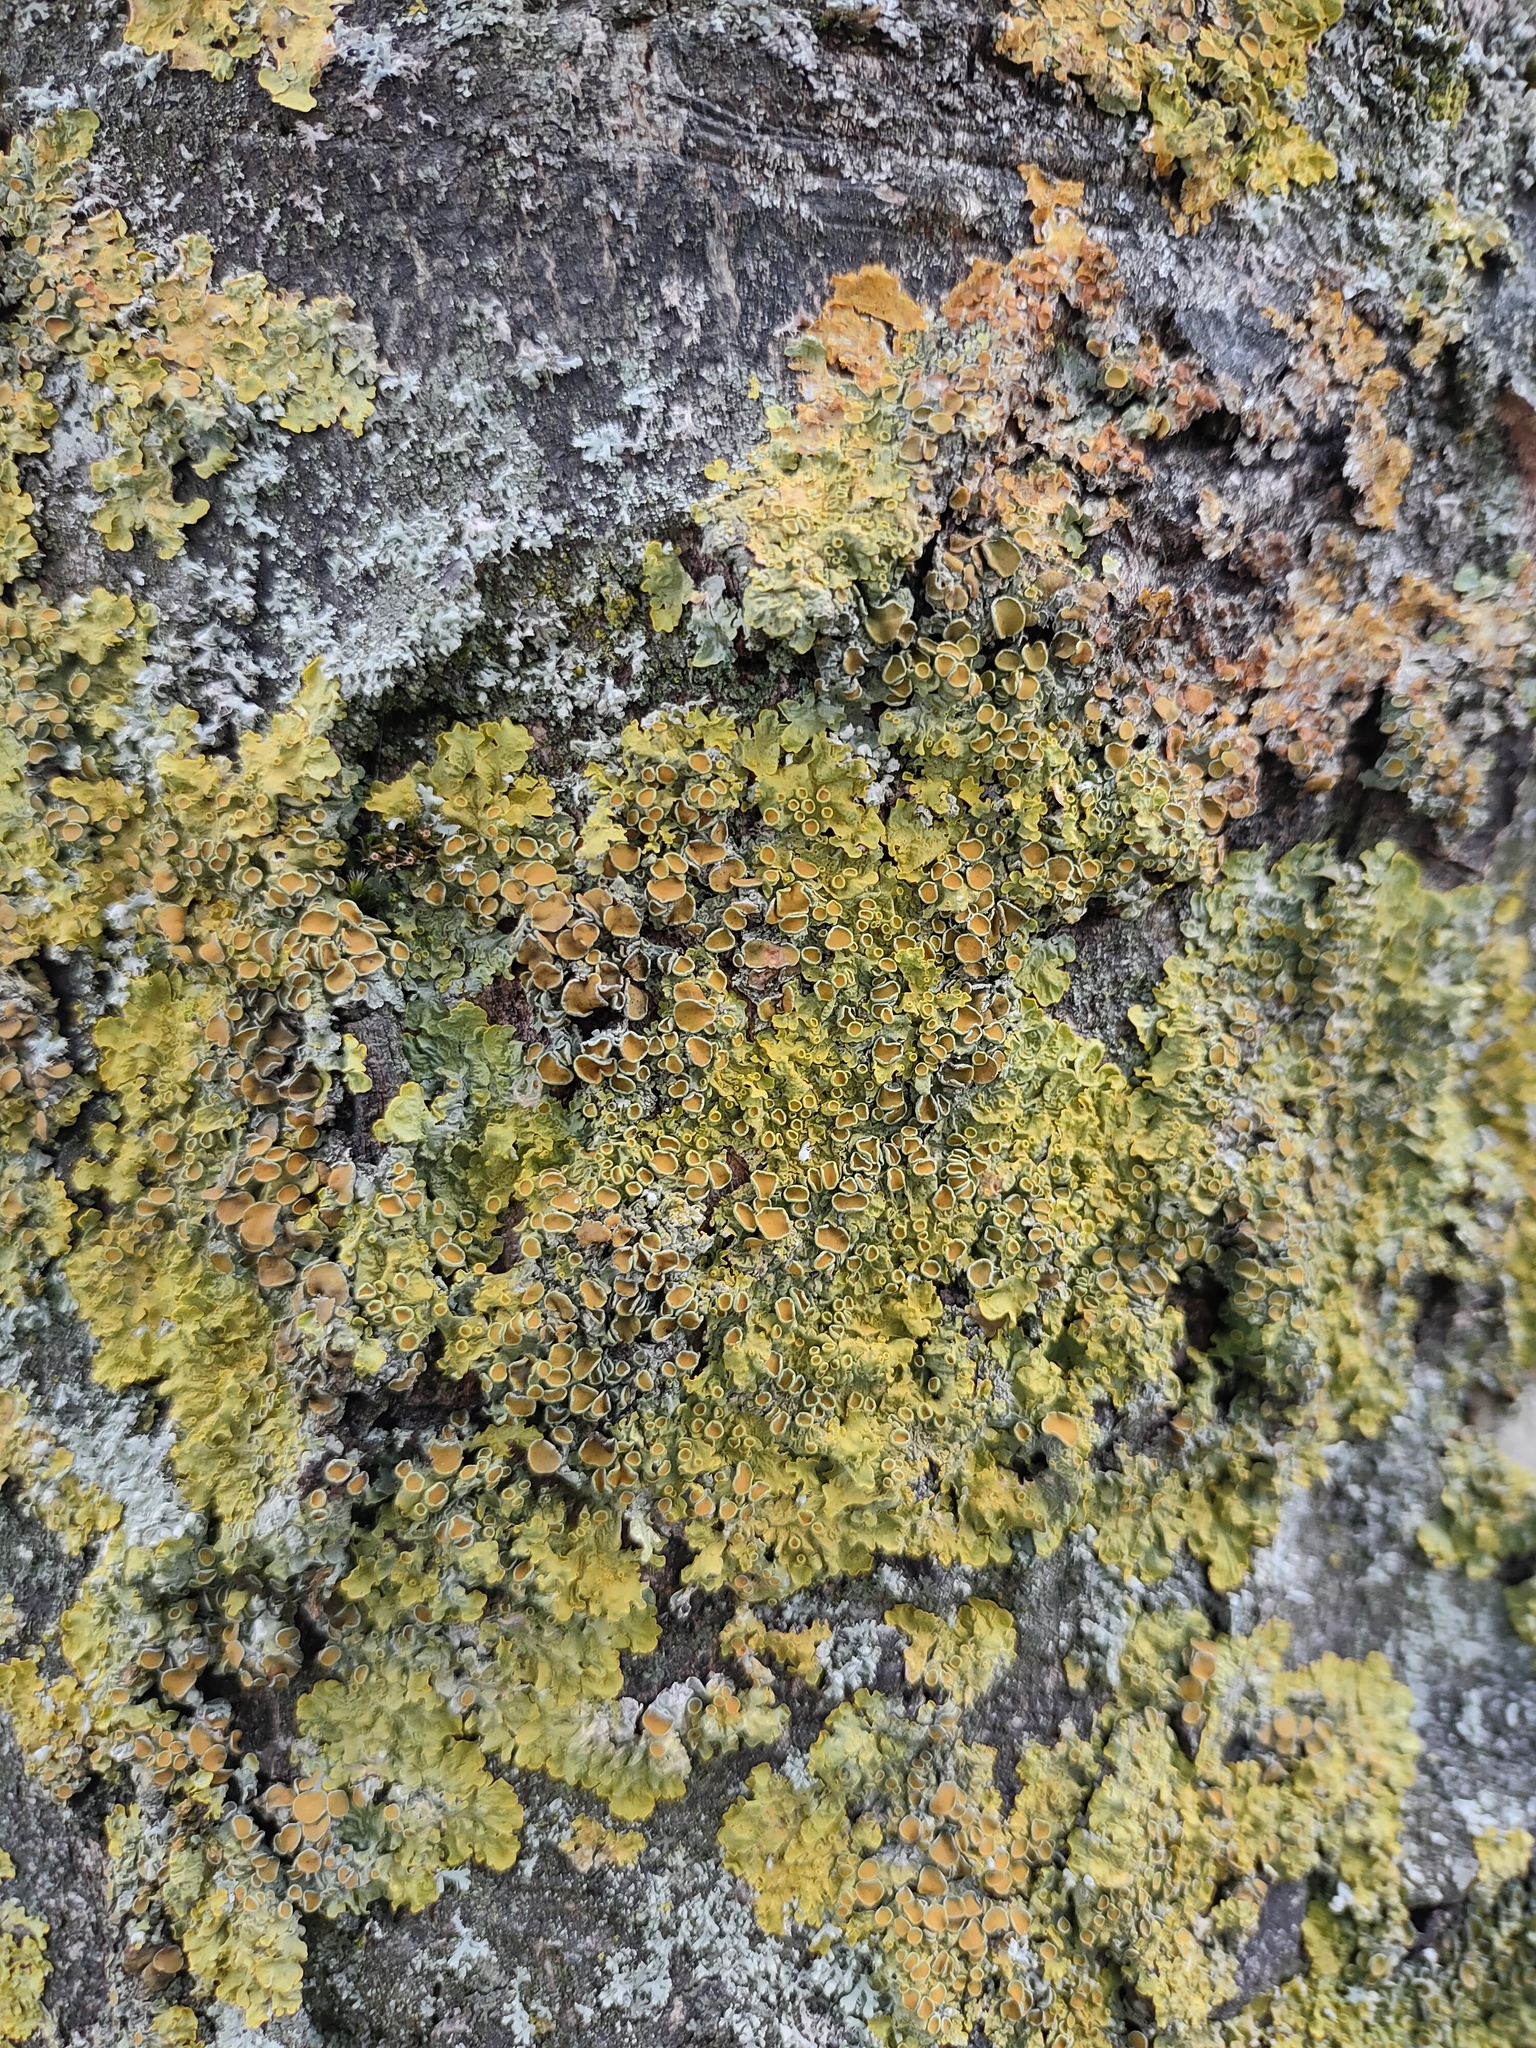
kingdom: Fungi
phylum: Ascomycota
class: Lecanoromycetes
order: Teloschistales
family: Teloschistaceae
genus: Xanthoria
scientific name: Xanthoria parietina
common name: Common orange lichen
